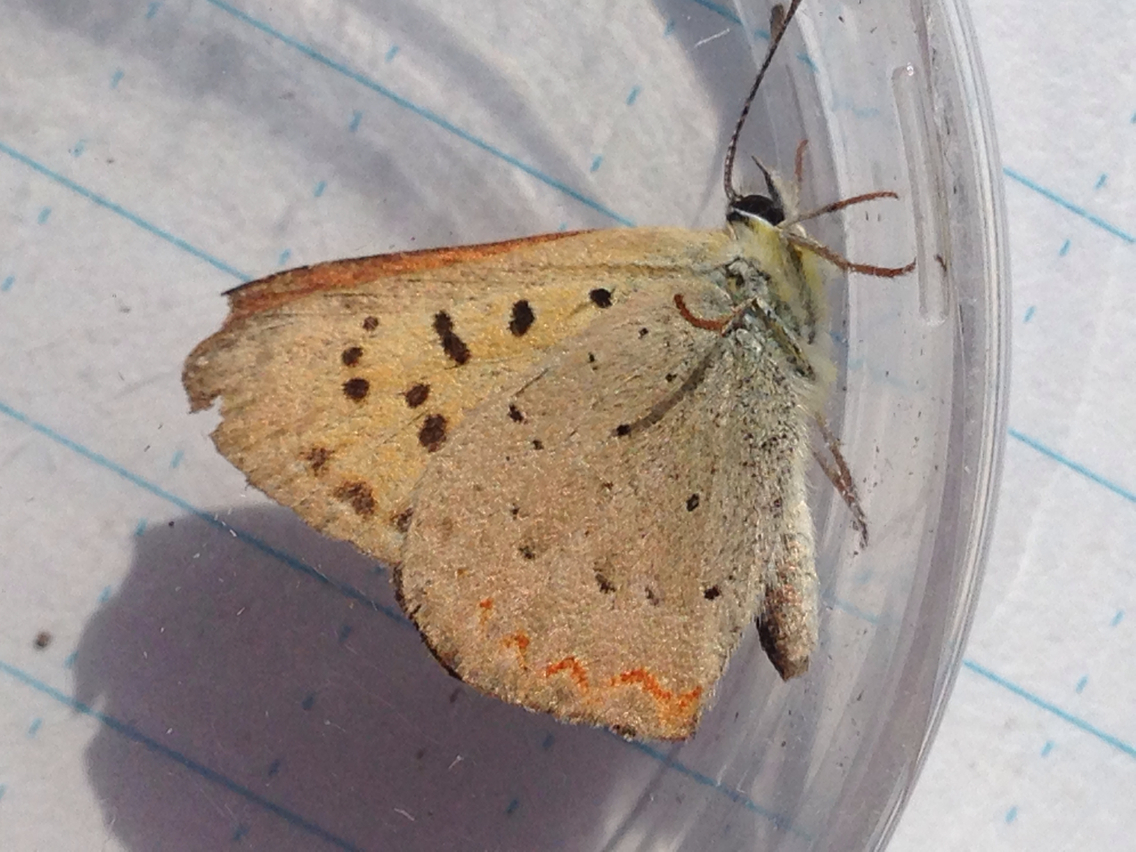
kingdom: Animalia
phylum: Arthropoda
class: Insecta
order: Lepidoptera
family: Lycaenidae
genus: Tharsalea
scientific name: Tharsalea helloides
